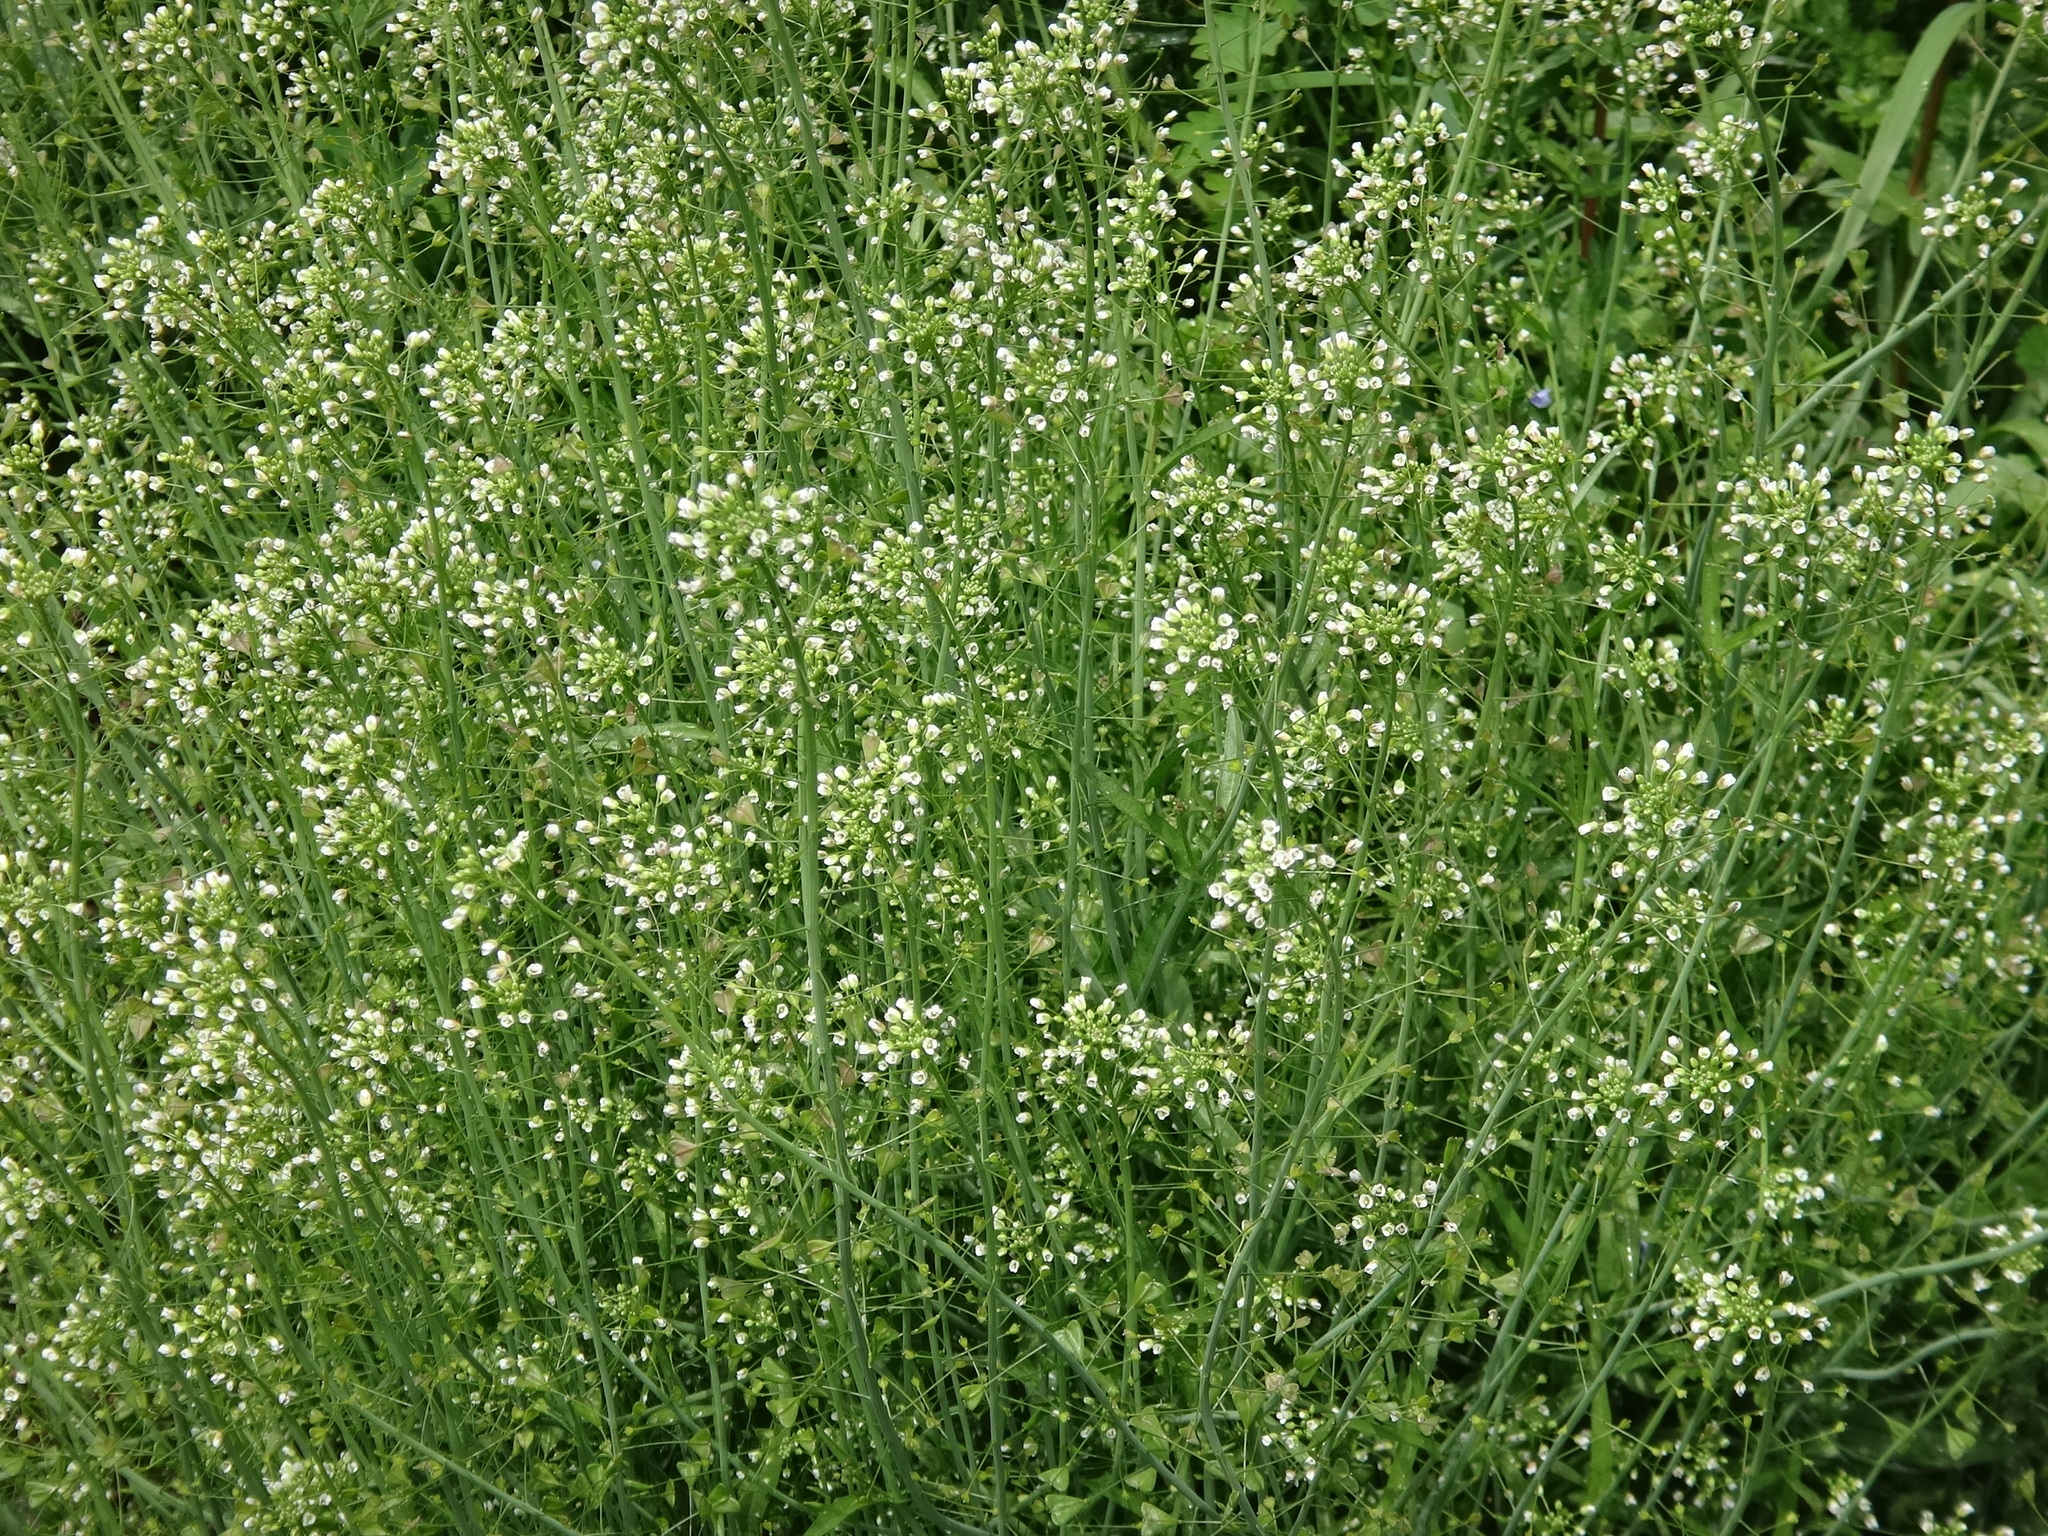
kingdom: Plantae
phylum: Tracheophyta
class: Magnoliopsida
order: Brassicales
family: Brassicaceae
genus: Capsella
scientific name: Capsella bursa-pastoris
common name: Shepherd's purse
